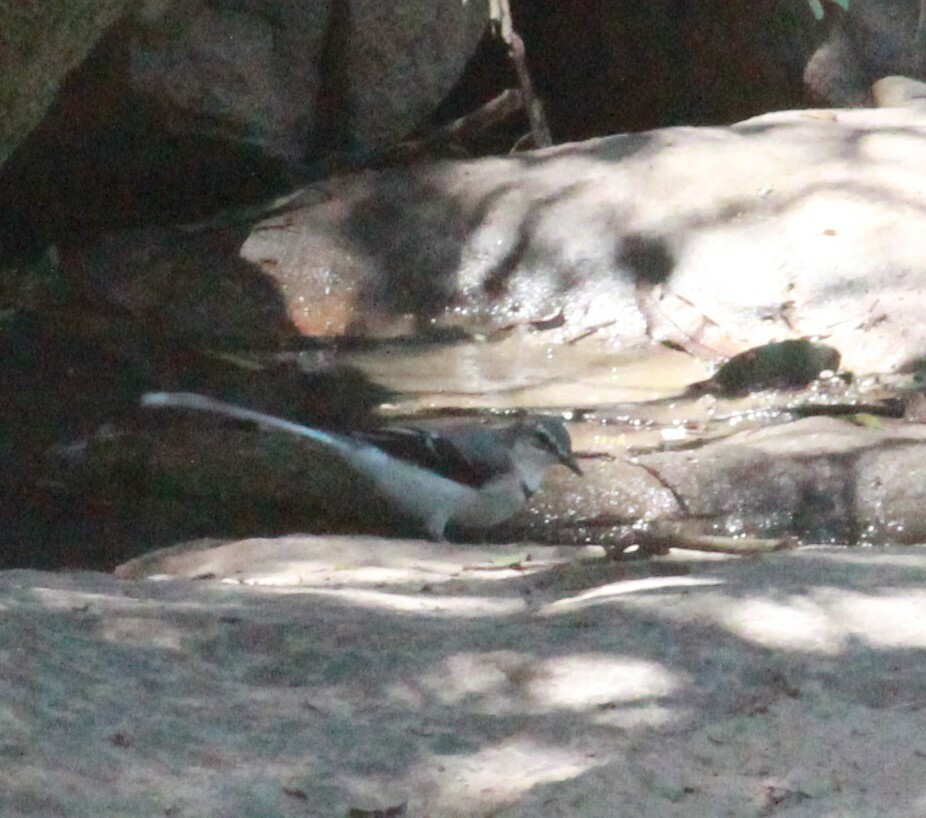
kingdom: Animalia
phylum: Chordata
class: Aves
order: Passeriformes
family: Motacillidae
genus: Motacilla
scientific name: Motacilla clara
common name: Mountain wagtail
